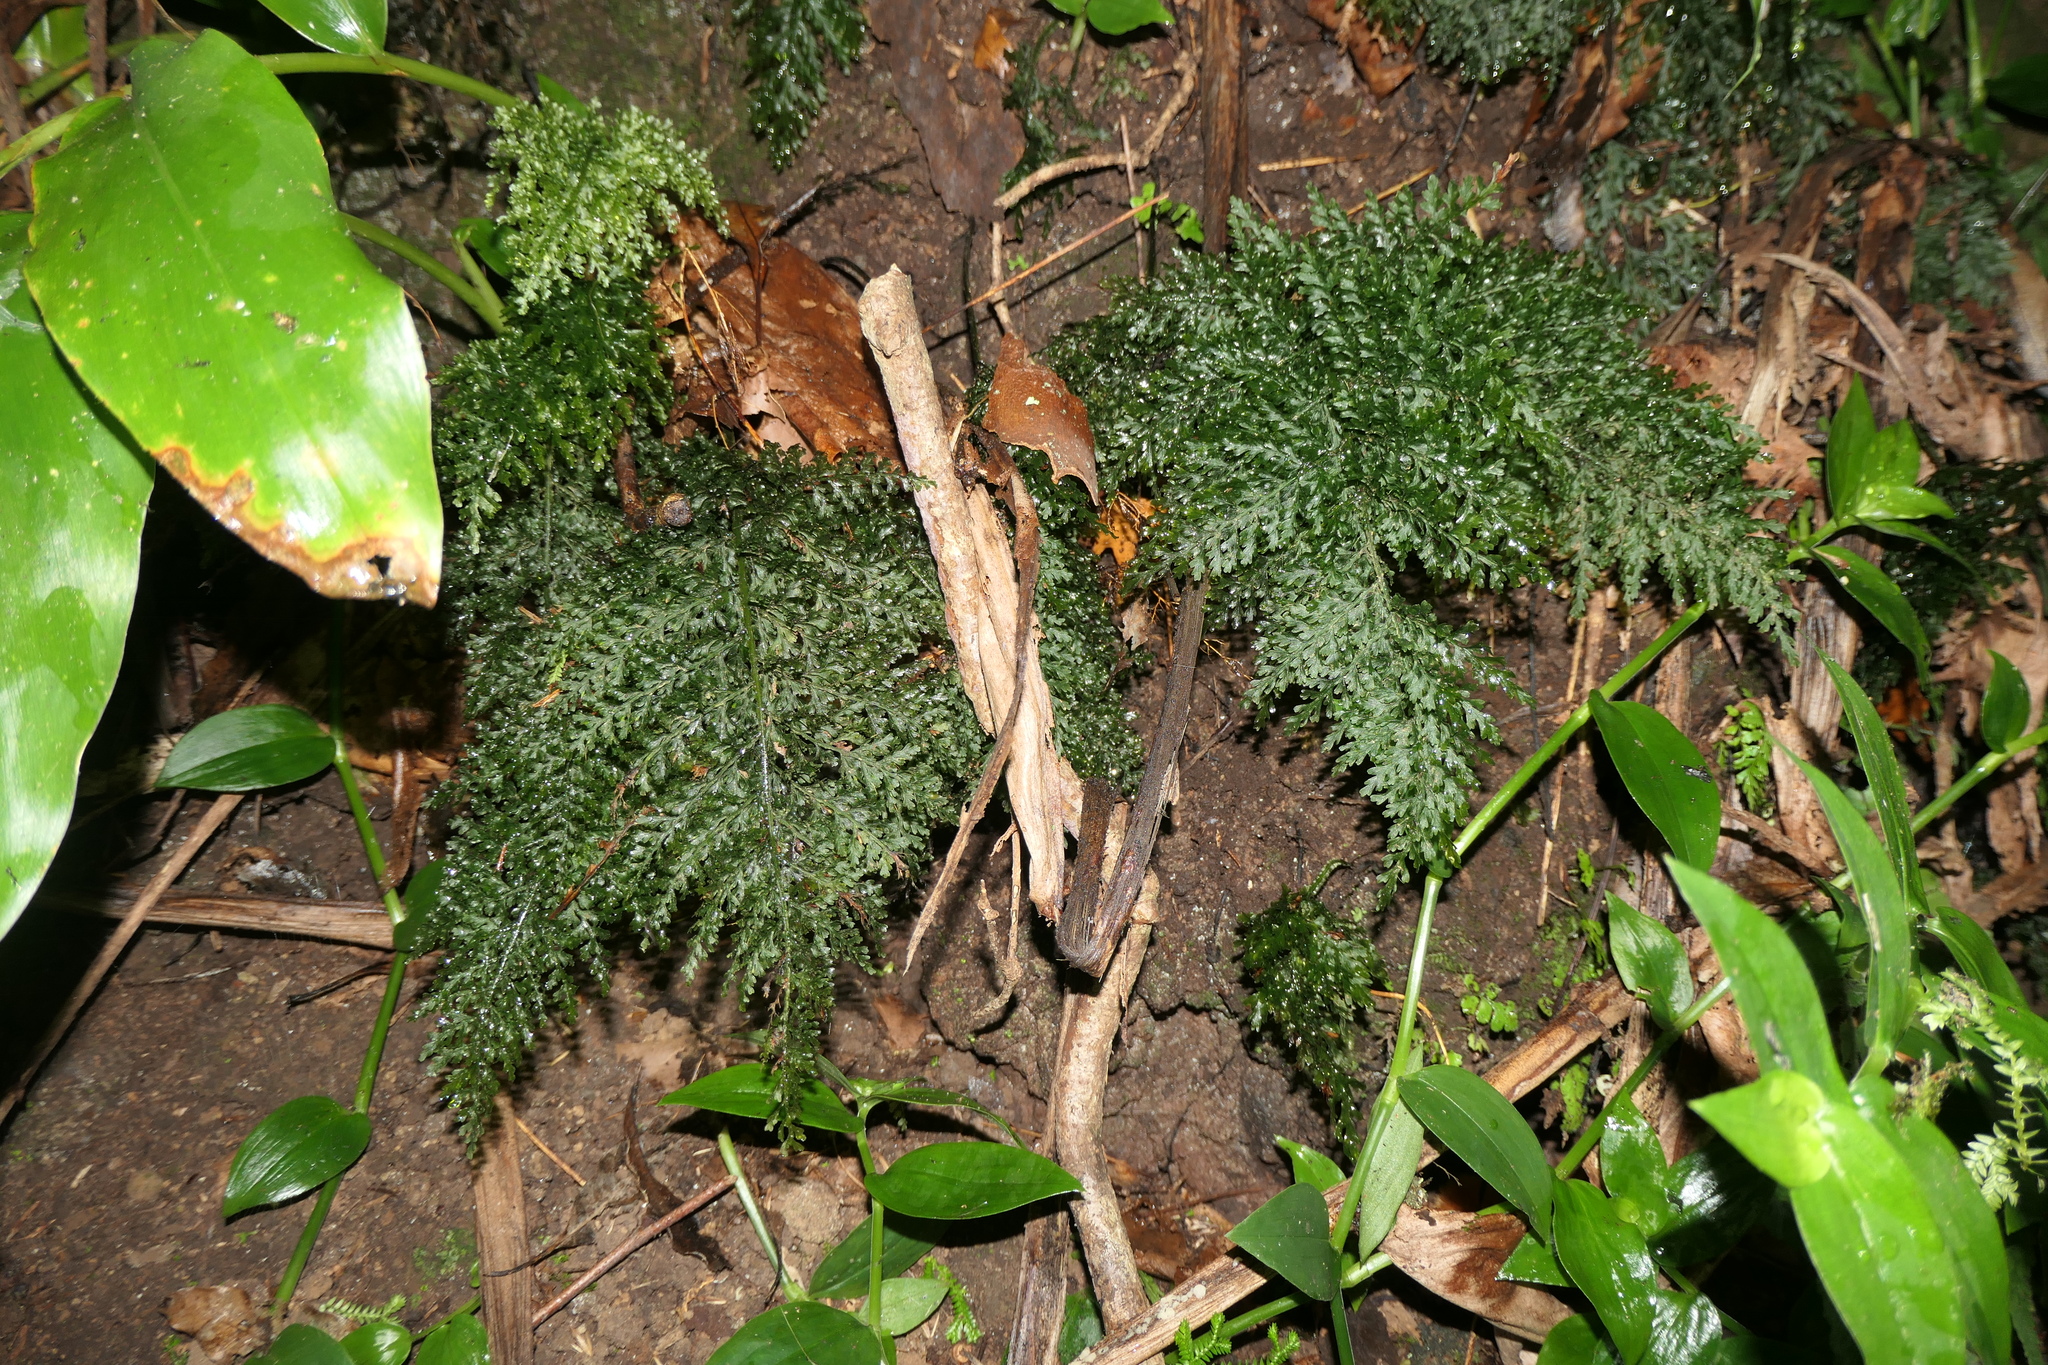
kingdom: Plantae
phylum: Tracheophyta
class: Polypodiopsida
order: Hymenophyllales
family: Hymenophyllaceae
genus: Vandenboschia
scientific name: Vandenboschia speciosa
